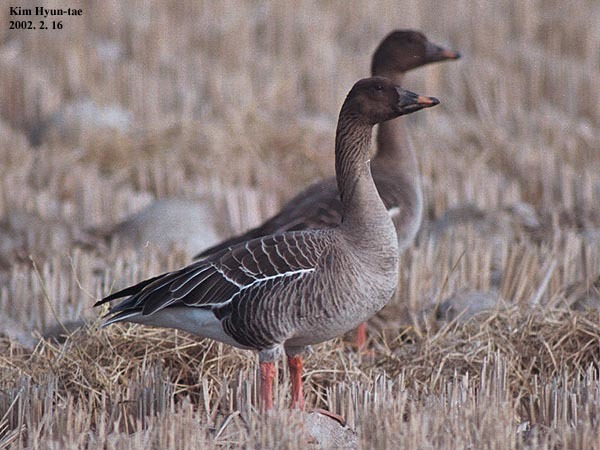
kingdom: Animalia
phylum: Chordata
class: Aves
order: Anseriformes
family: Anatidae
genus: Anser
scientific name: Anser serrirostris
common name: Tundra bean goose
